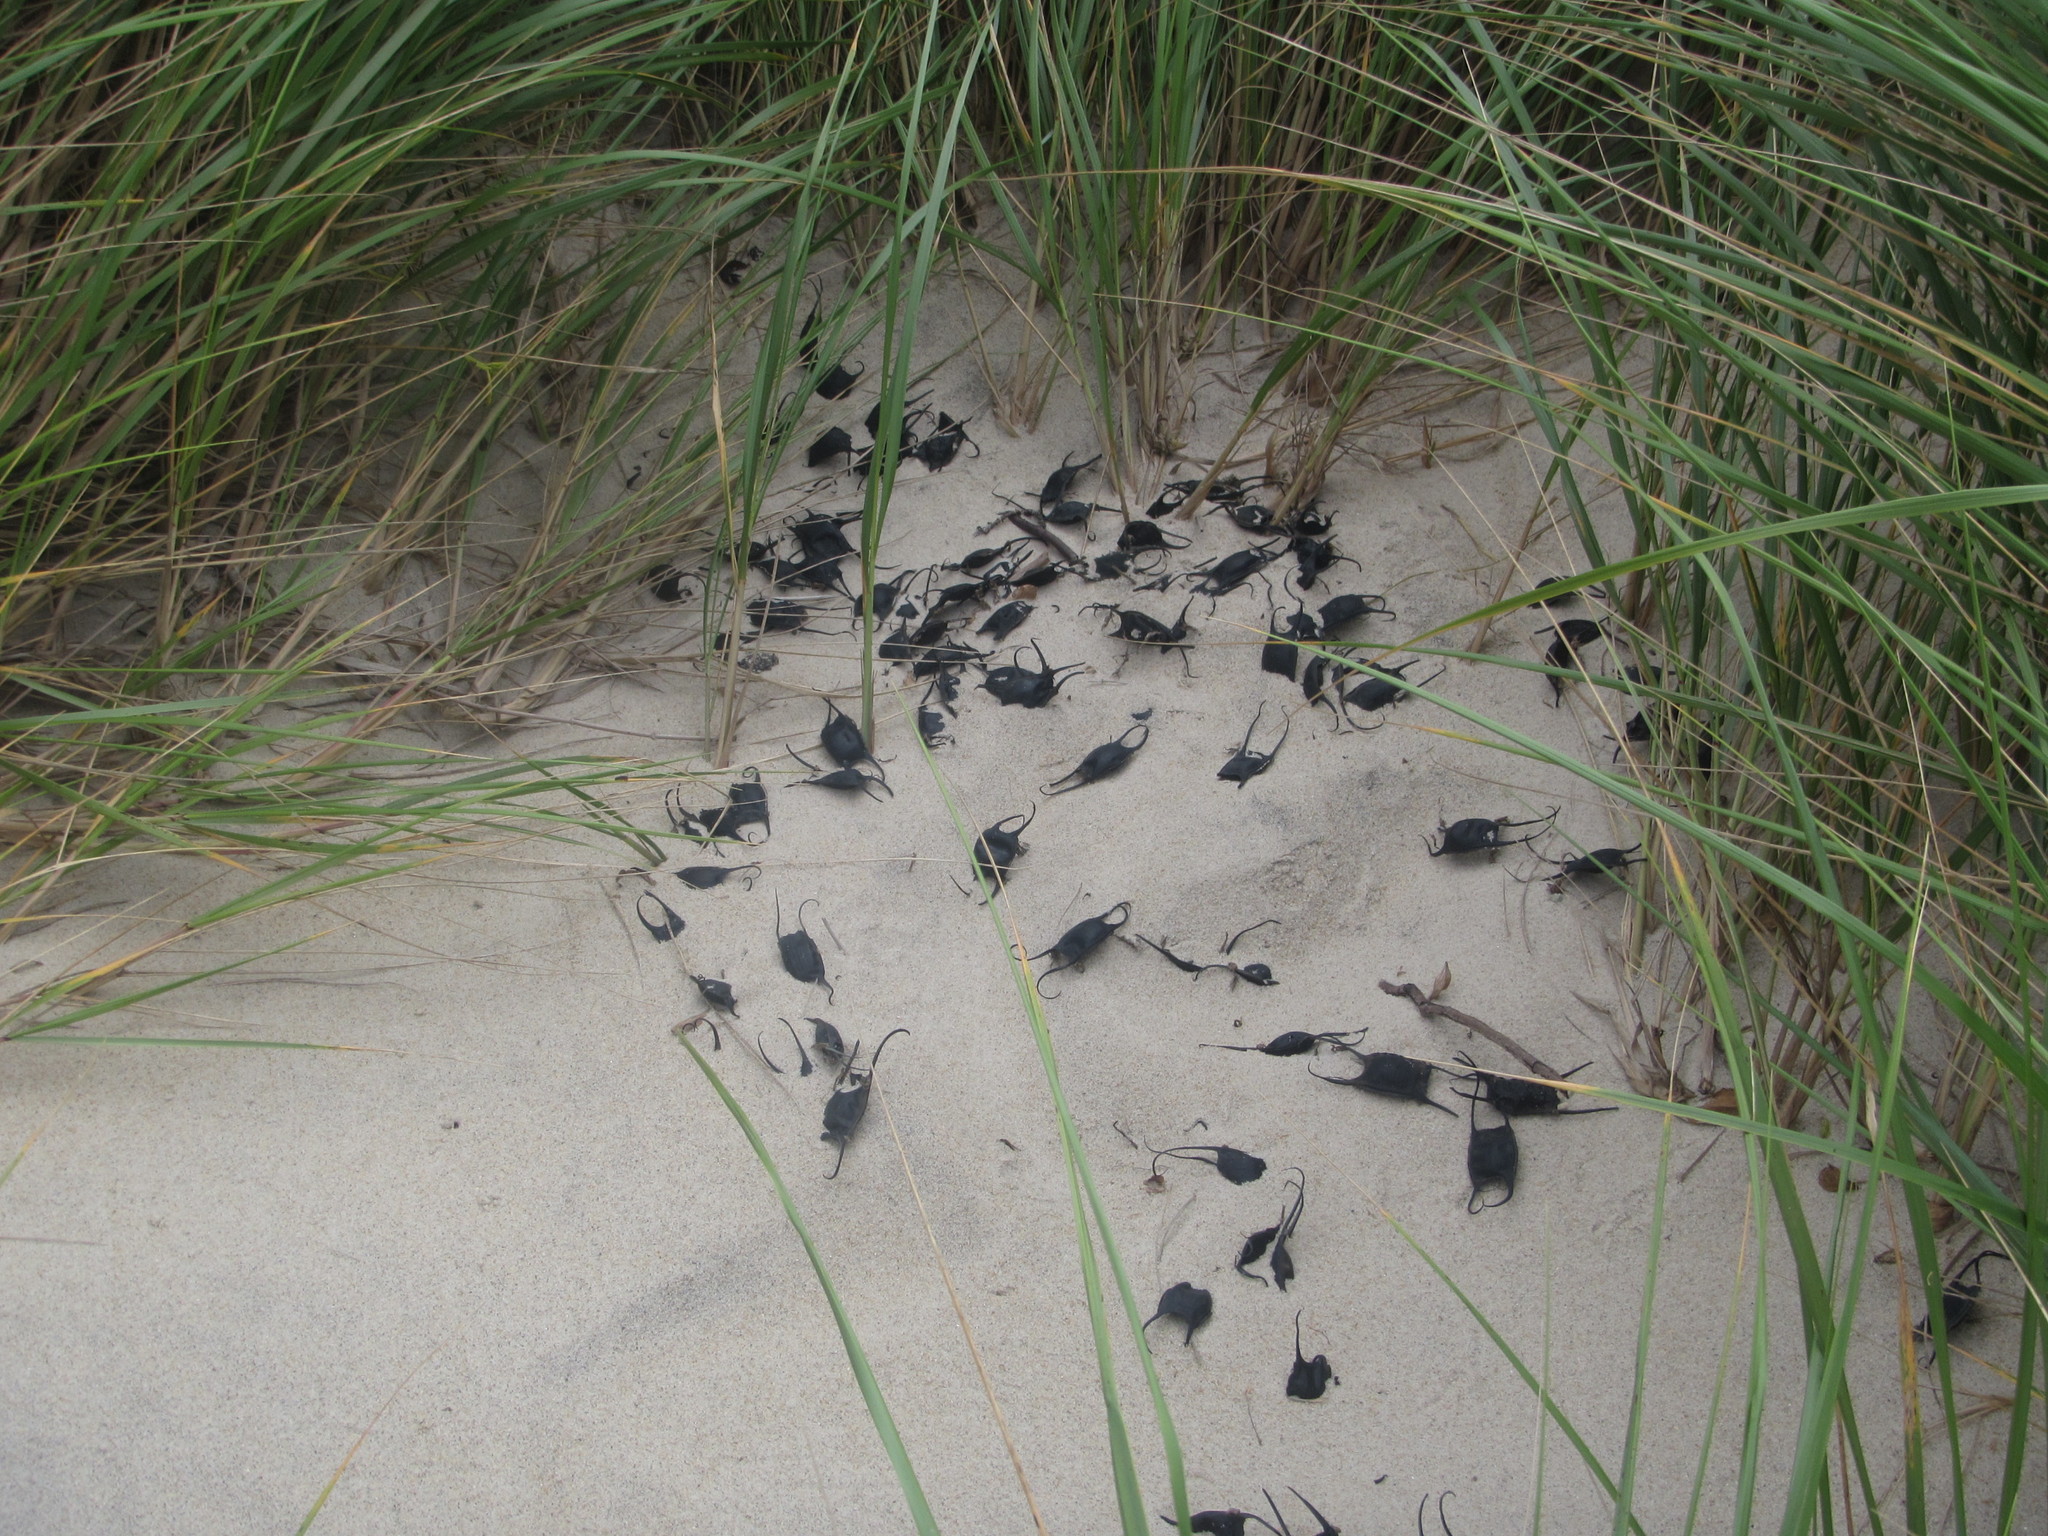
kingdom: Animalia
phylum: Chordata
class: Elasmobranchii
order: Rajiformes
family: Rajidae
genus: Leucoraja
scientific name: Leucoraja erinacea
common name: Little skate
